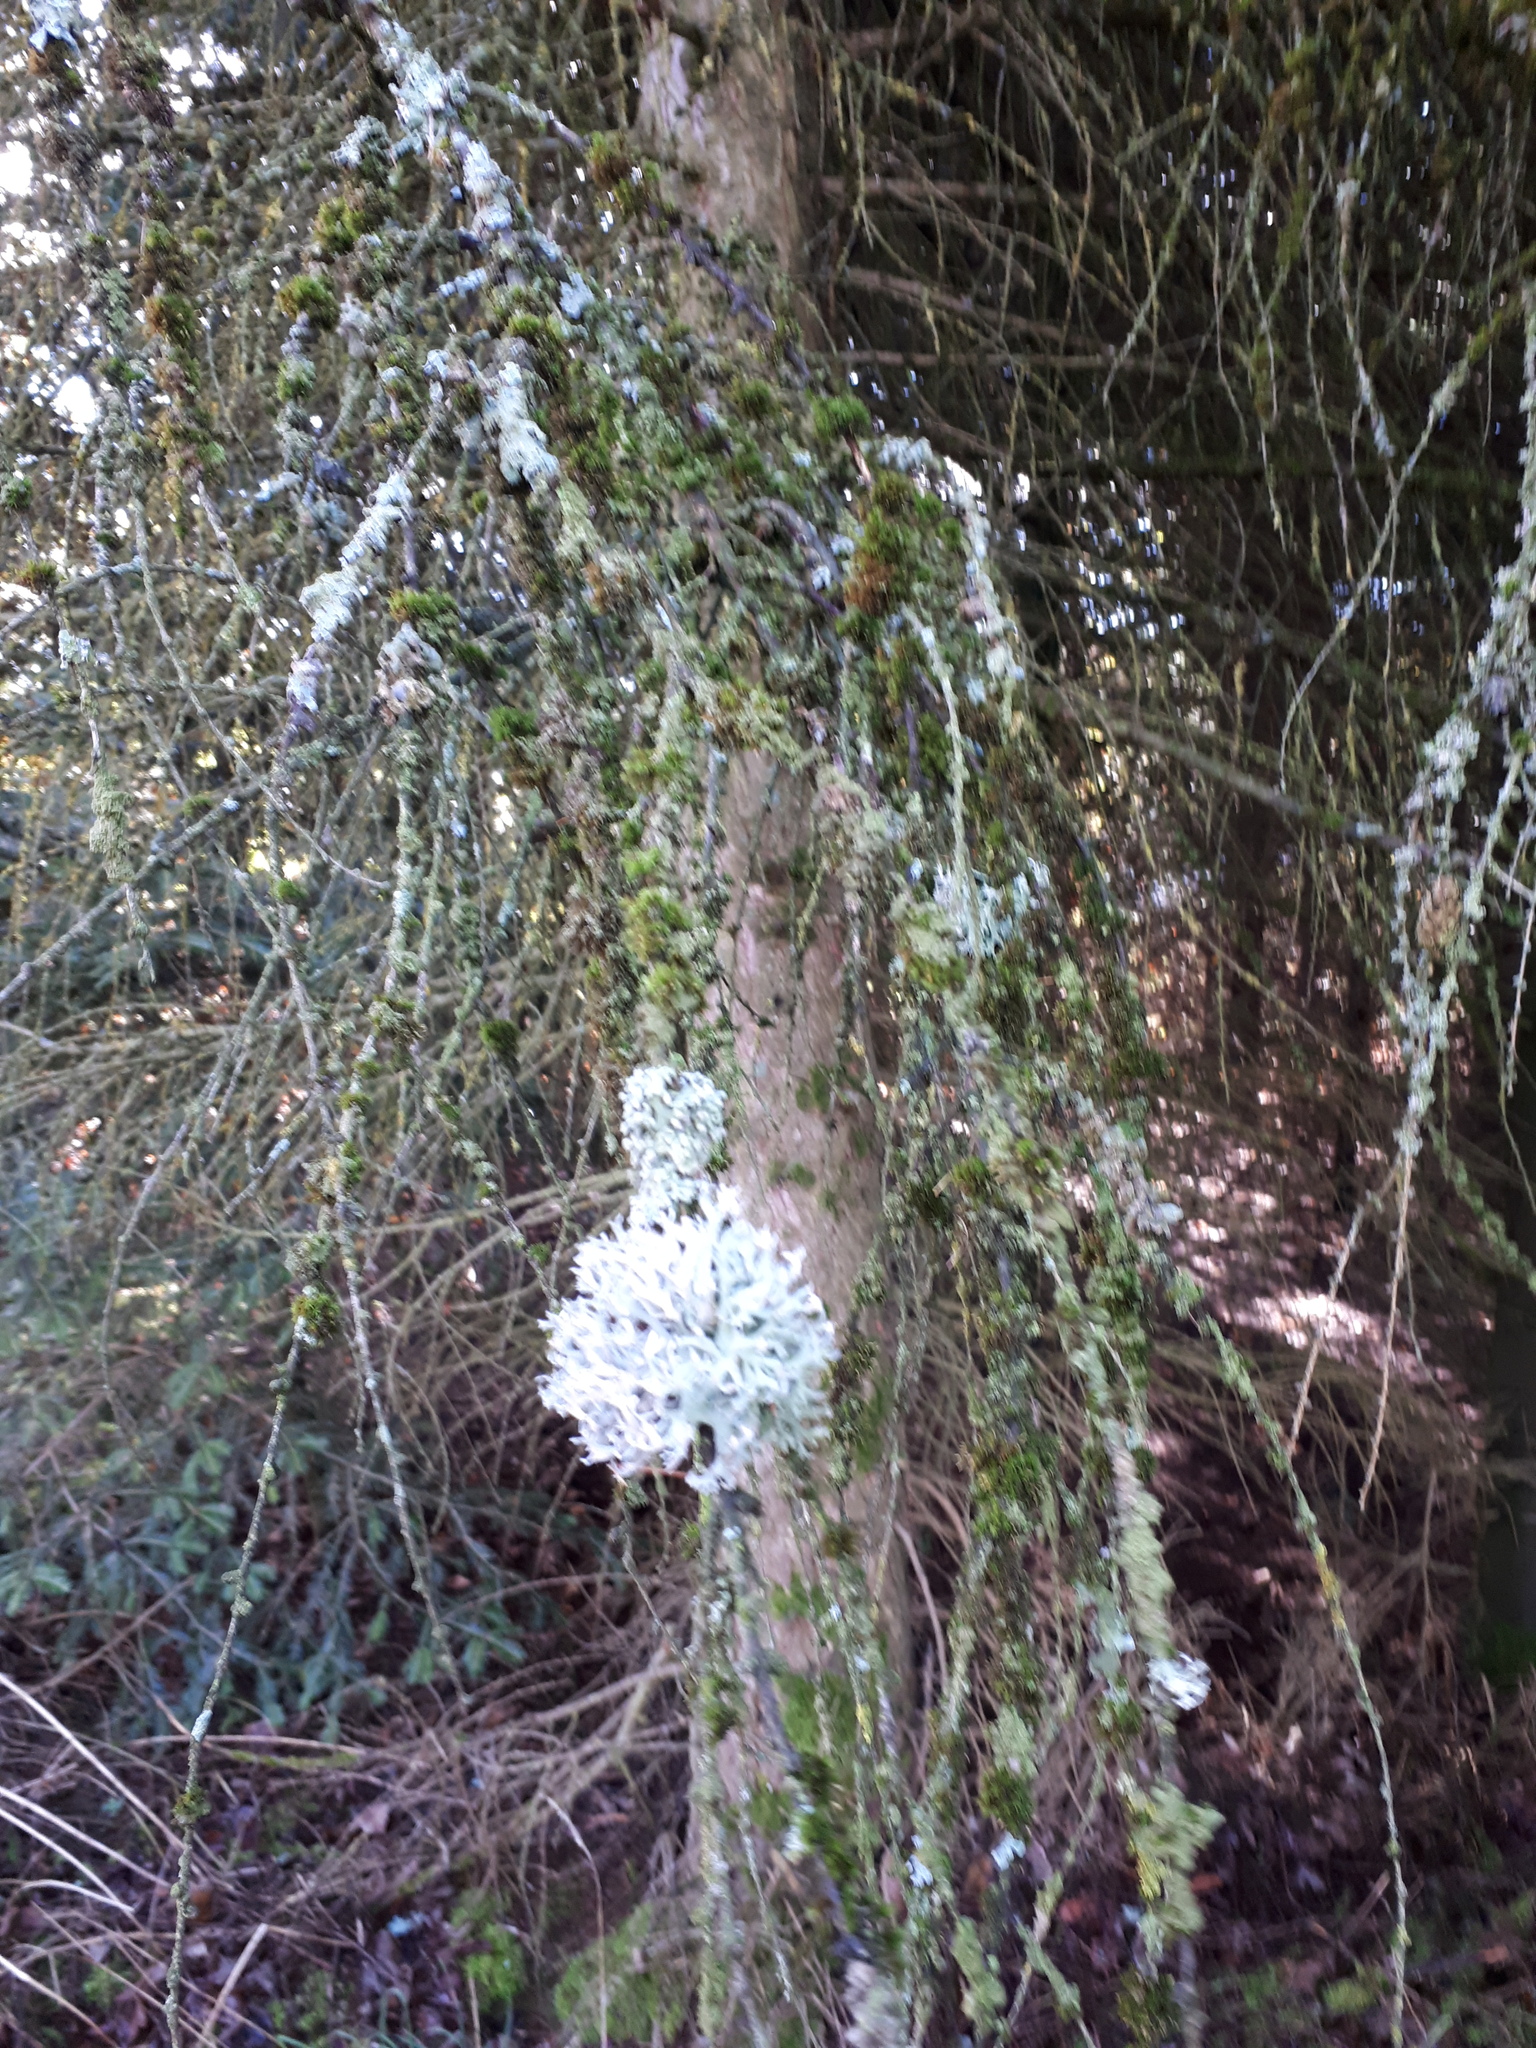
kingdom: Fungi
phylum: Ascomycota
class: Lecanoromycetes
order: Teloschistales
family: Teloschistaceae
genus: Xanthoria
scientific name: Xanthoria parietina
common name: Common orange lichen
